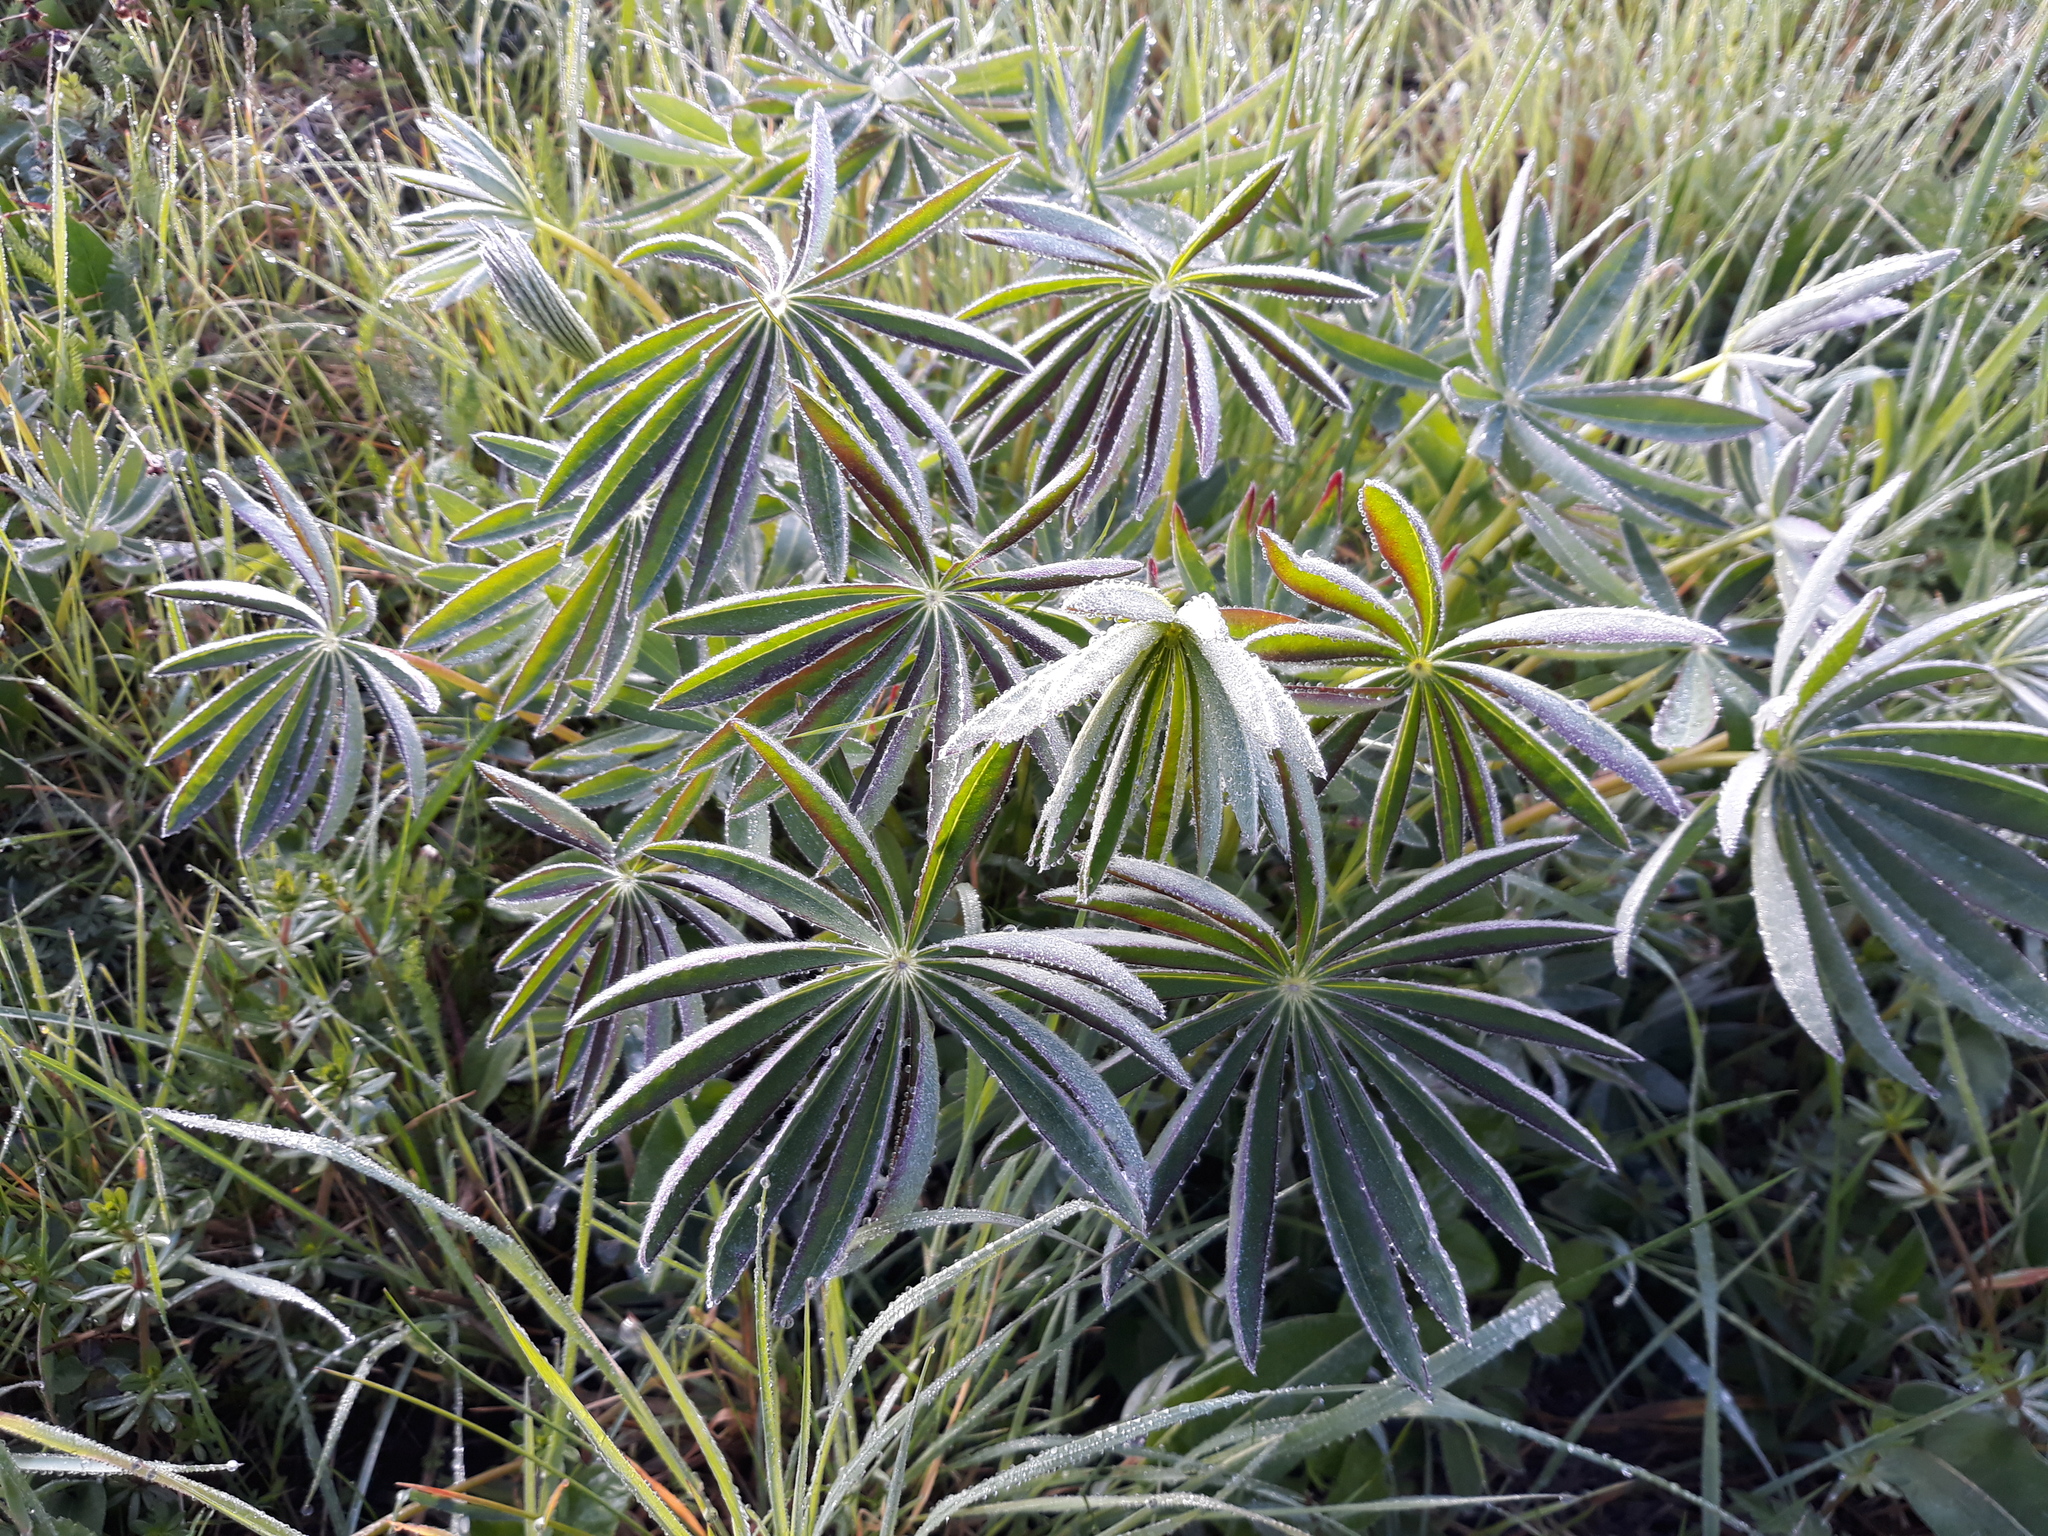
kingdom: Plantae
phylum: Tracheophyta
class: Magnoliopsida
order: Fabales
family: Fabaceae
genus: Lupinus
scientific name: Lupinus polyphyllus
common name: Garden lupin
